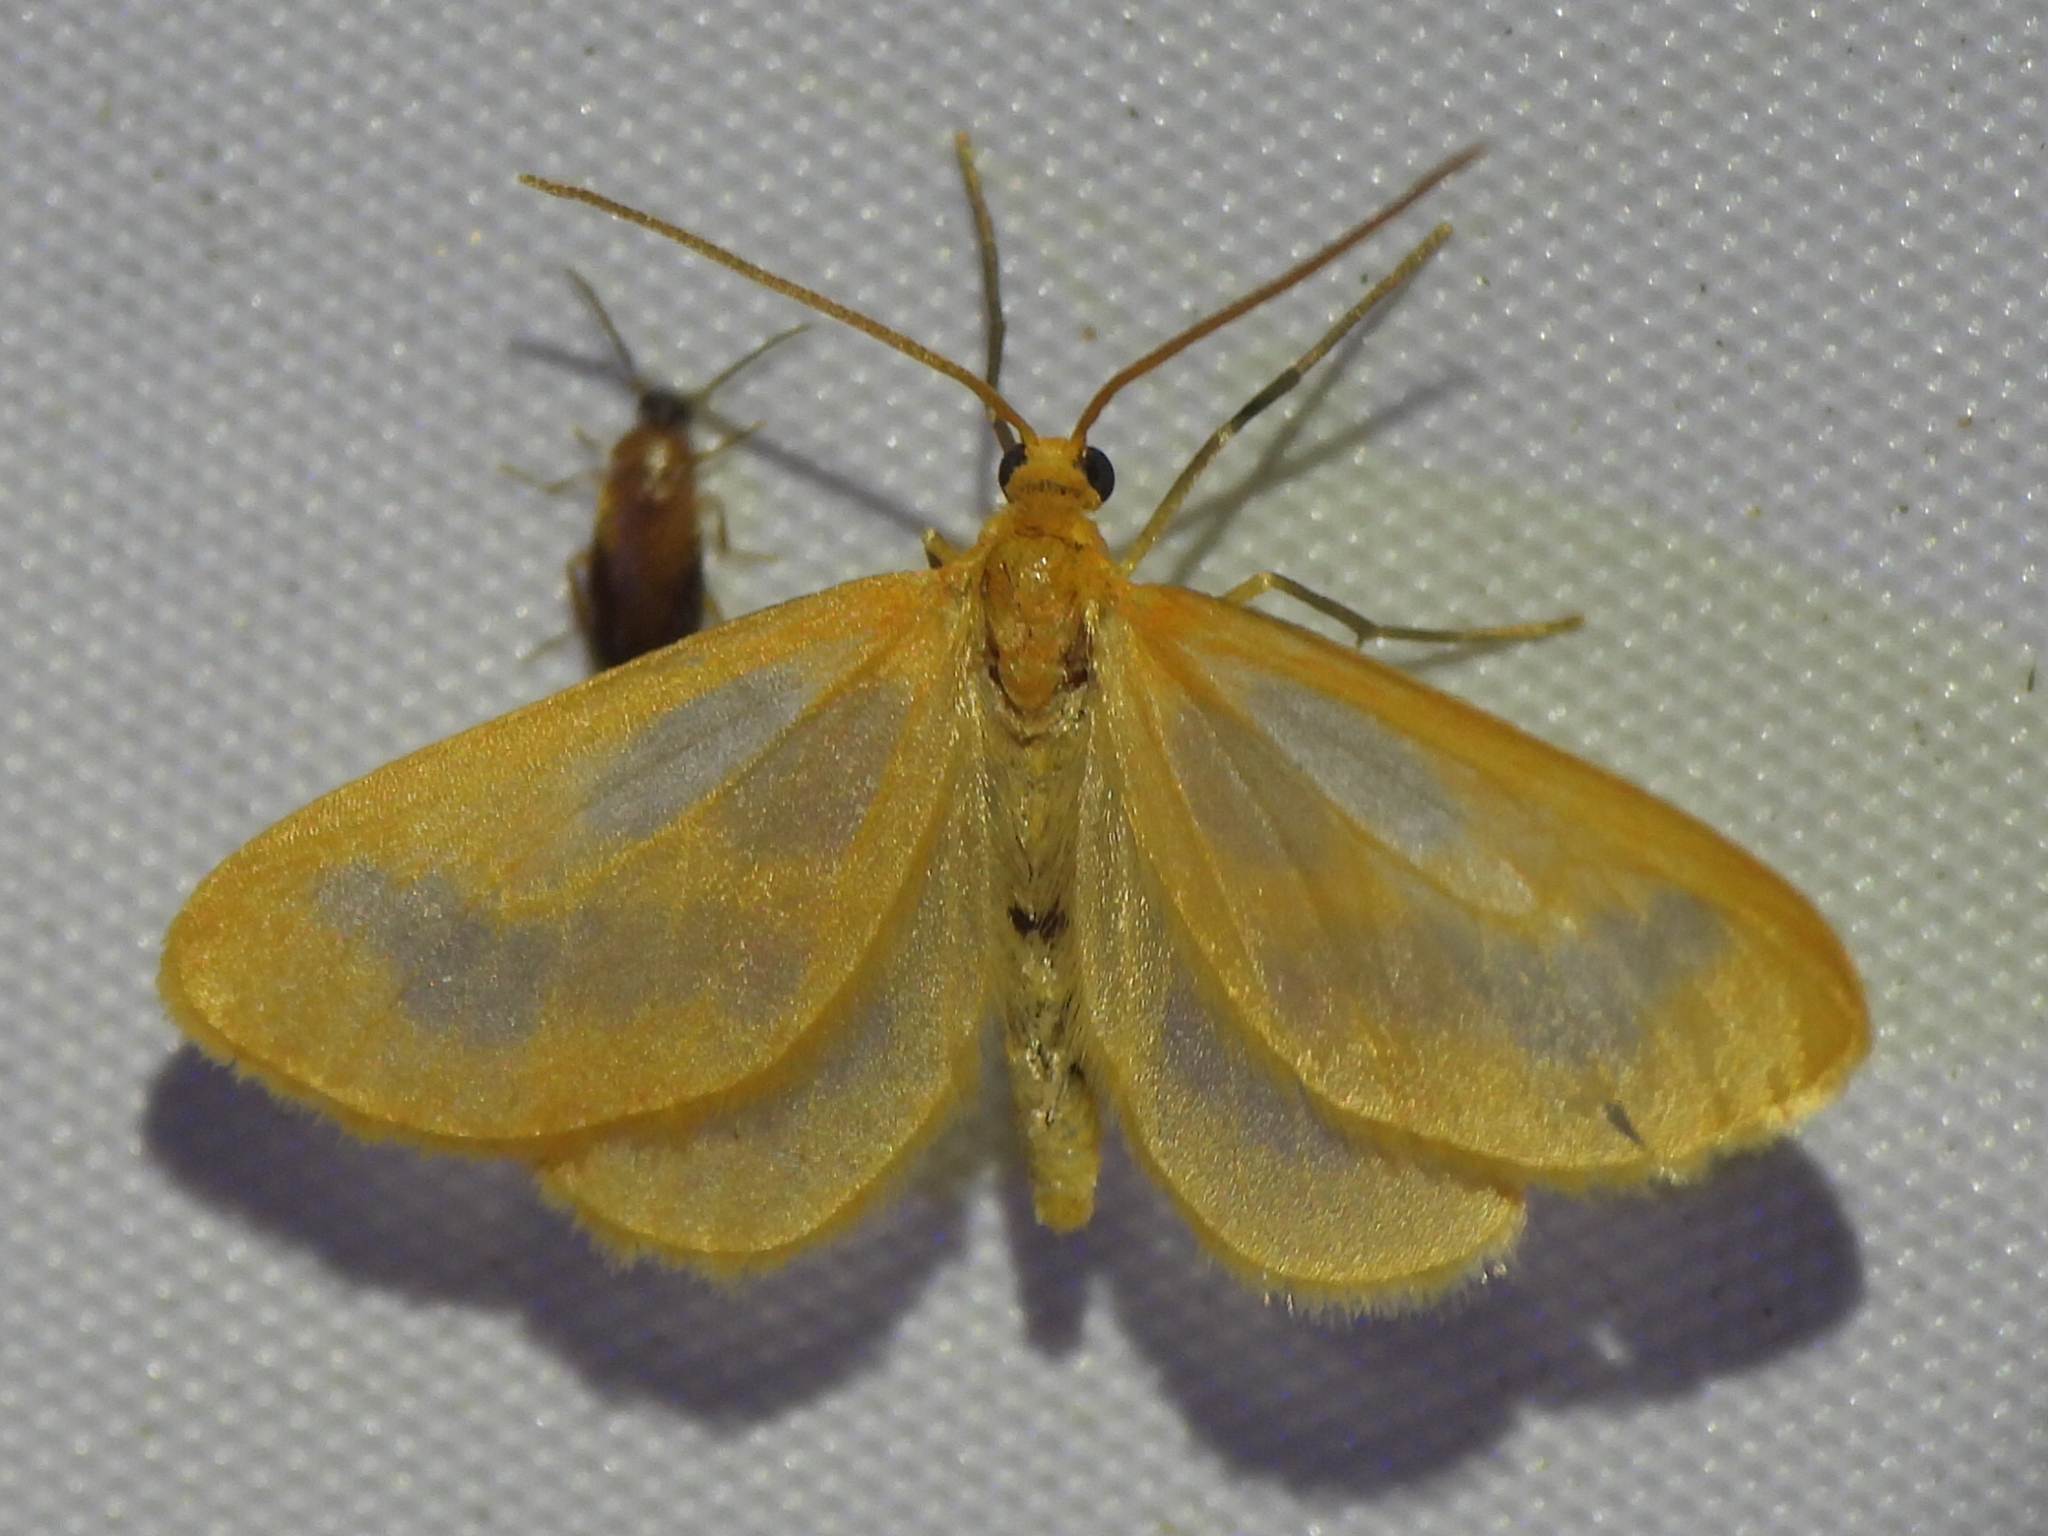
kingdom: Animalia
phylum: Arthropoda
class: Insecta
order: Lepidoptera
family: Geometridae
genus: Eubaphe
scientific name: Eubaphe helveta
